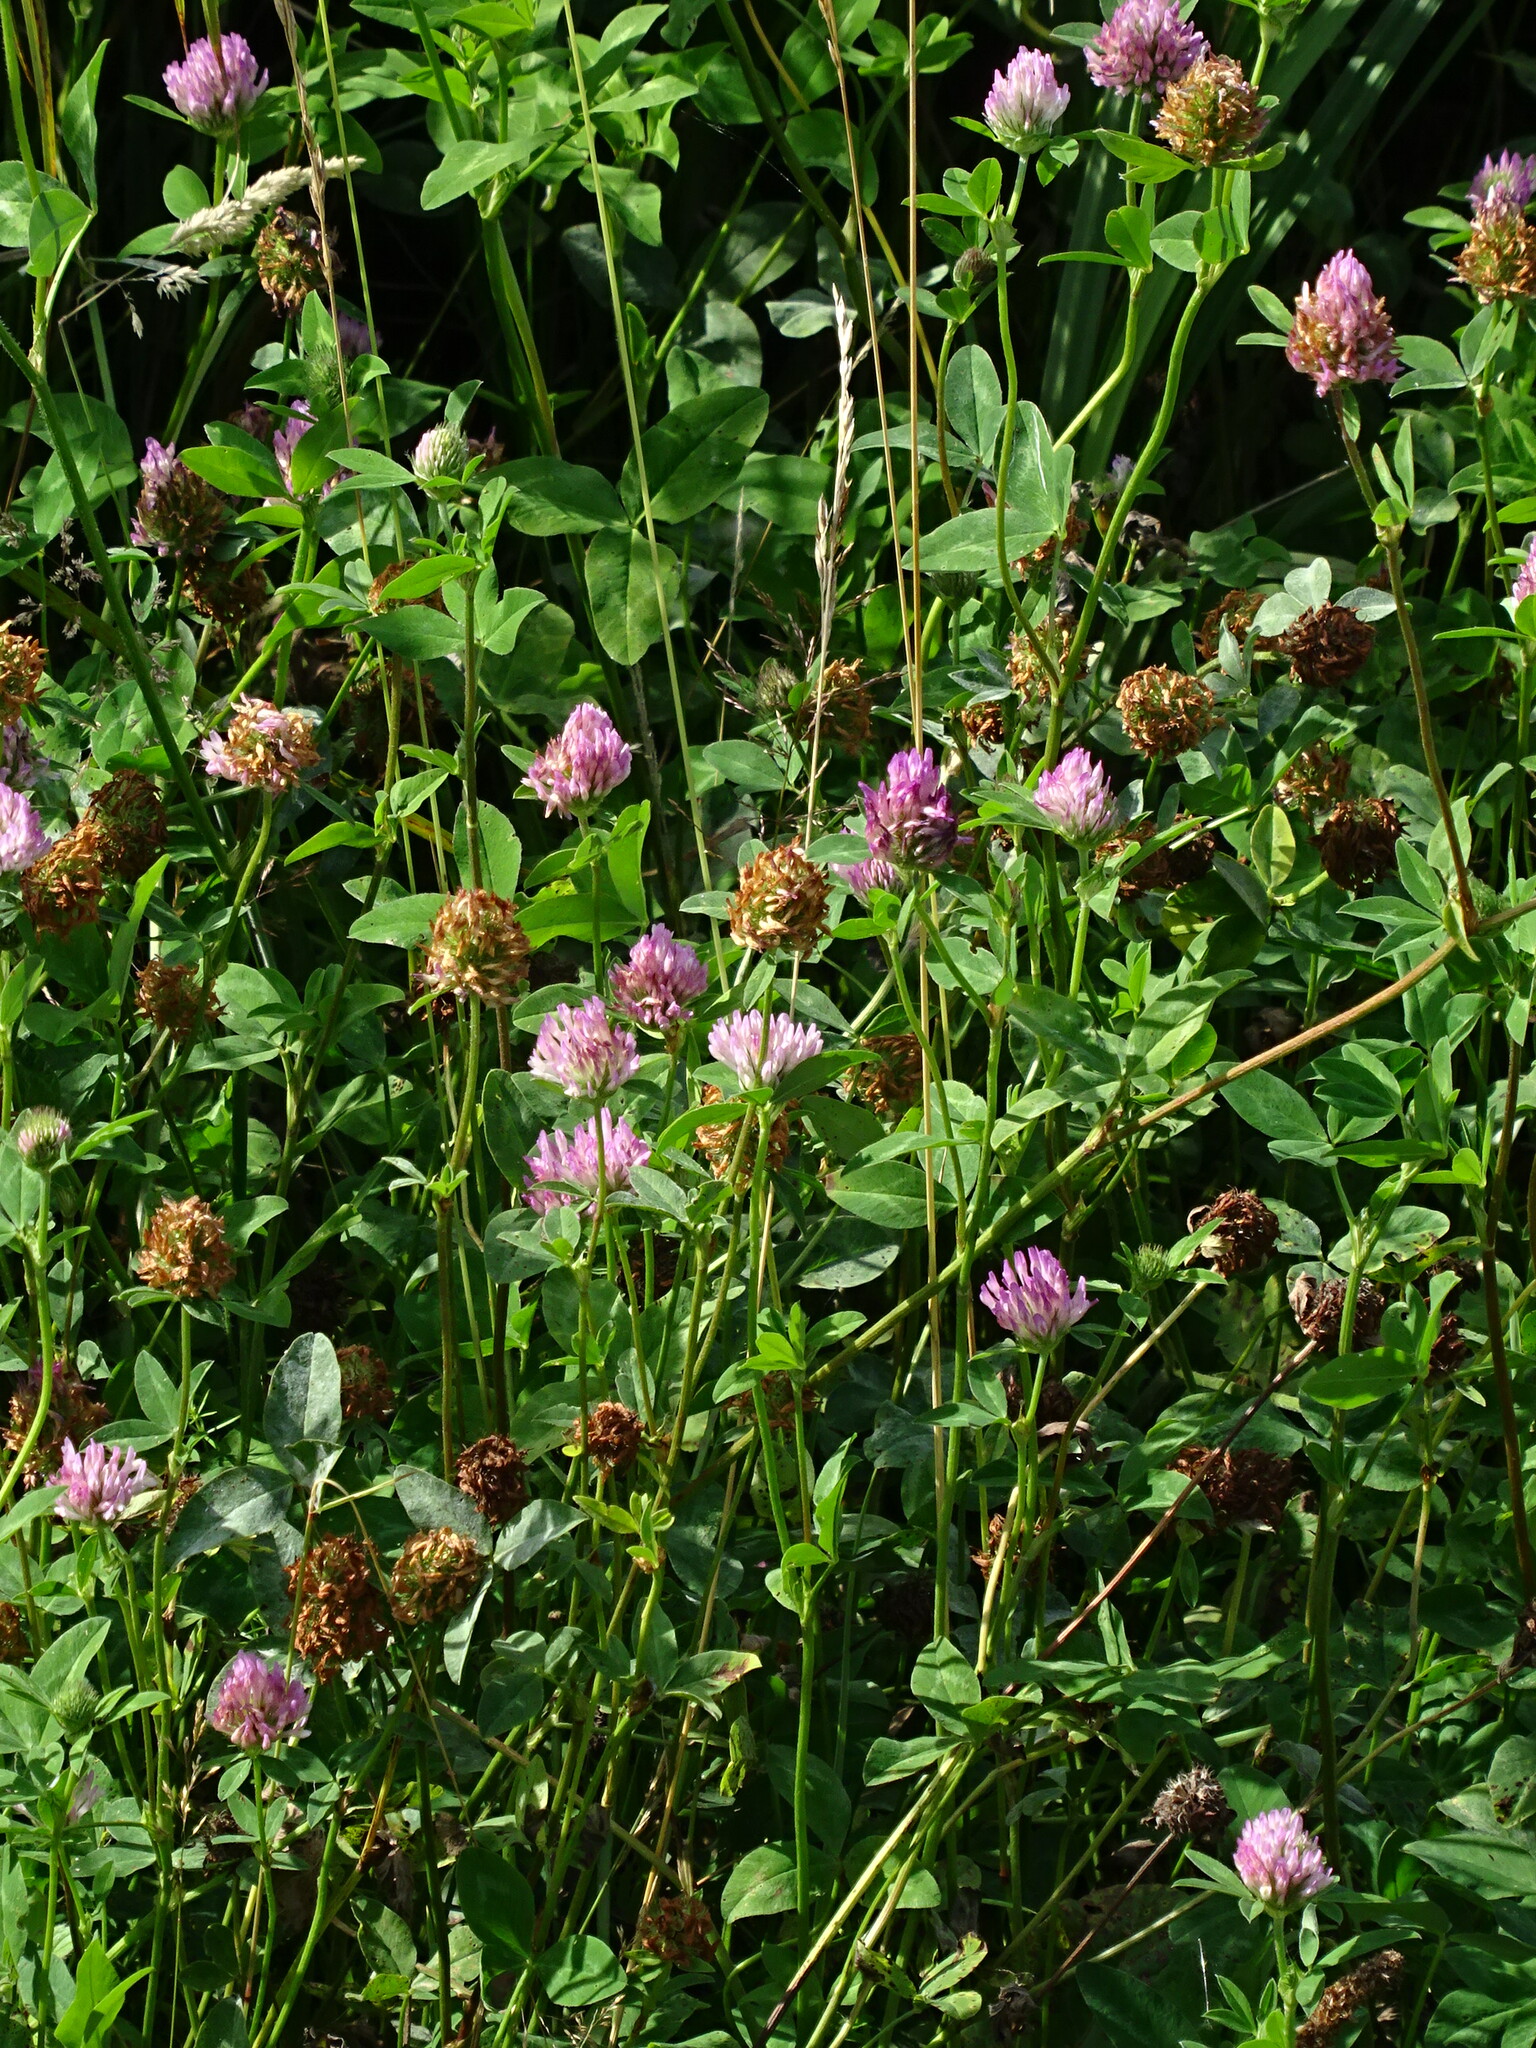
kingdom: Plantae
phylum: Tracheophyta
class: Magnoliopsida
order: Fabales
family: Fabaceae
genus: Trifolium
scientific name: Trifolium pratense
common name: Red clover
